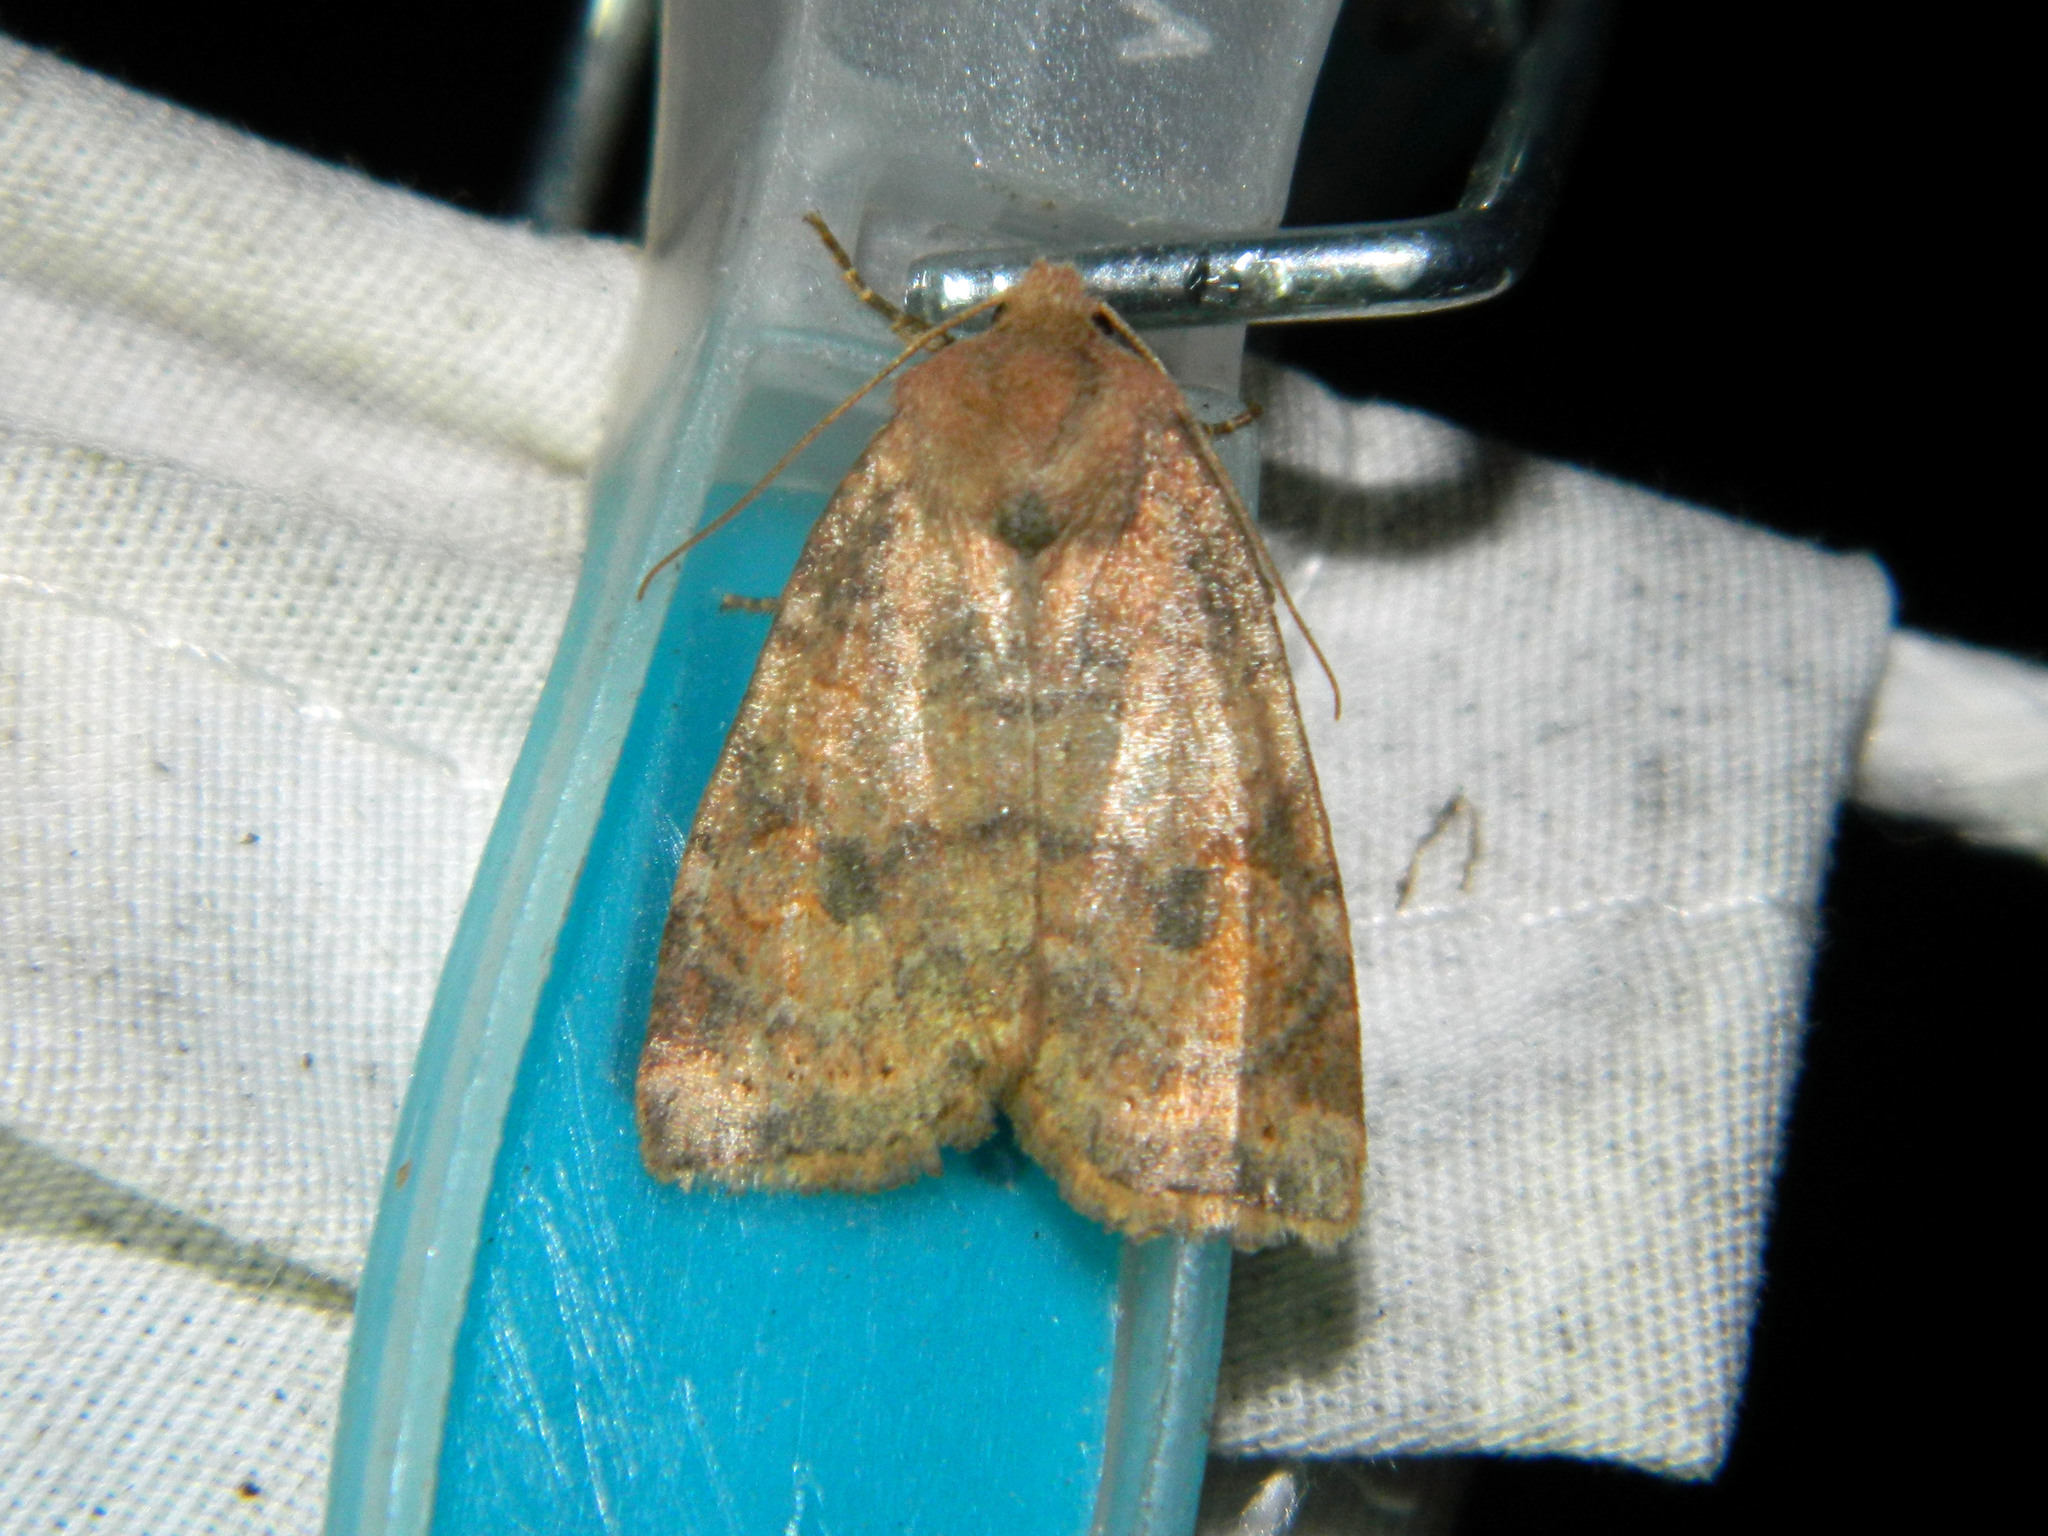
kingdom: Animalia
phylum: Arthropoda
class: Insecta
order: Lepidoptera
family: Noctuidae
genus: Agrochola
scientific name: Agrochola bicolorago
